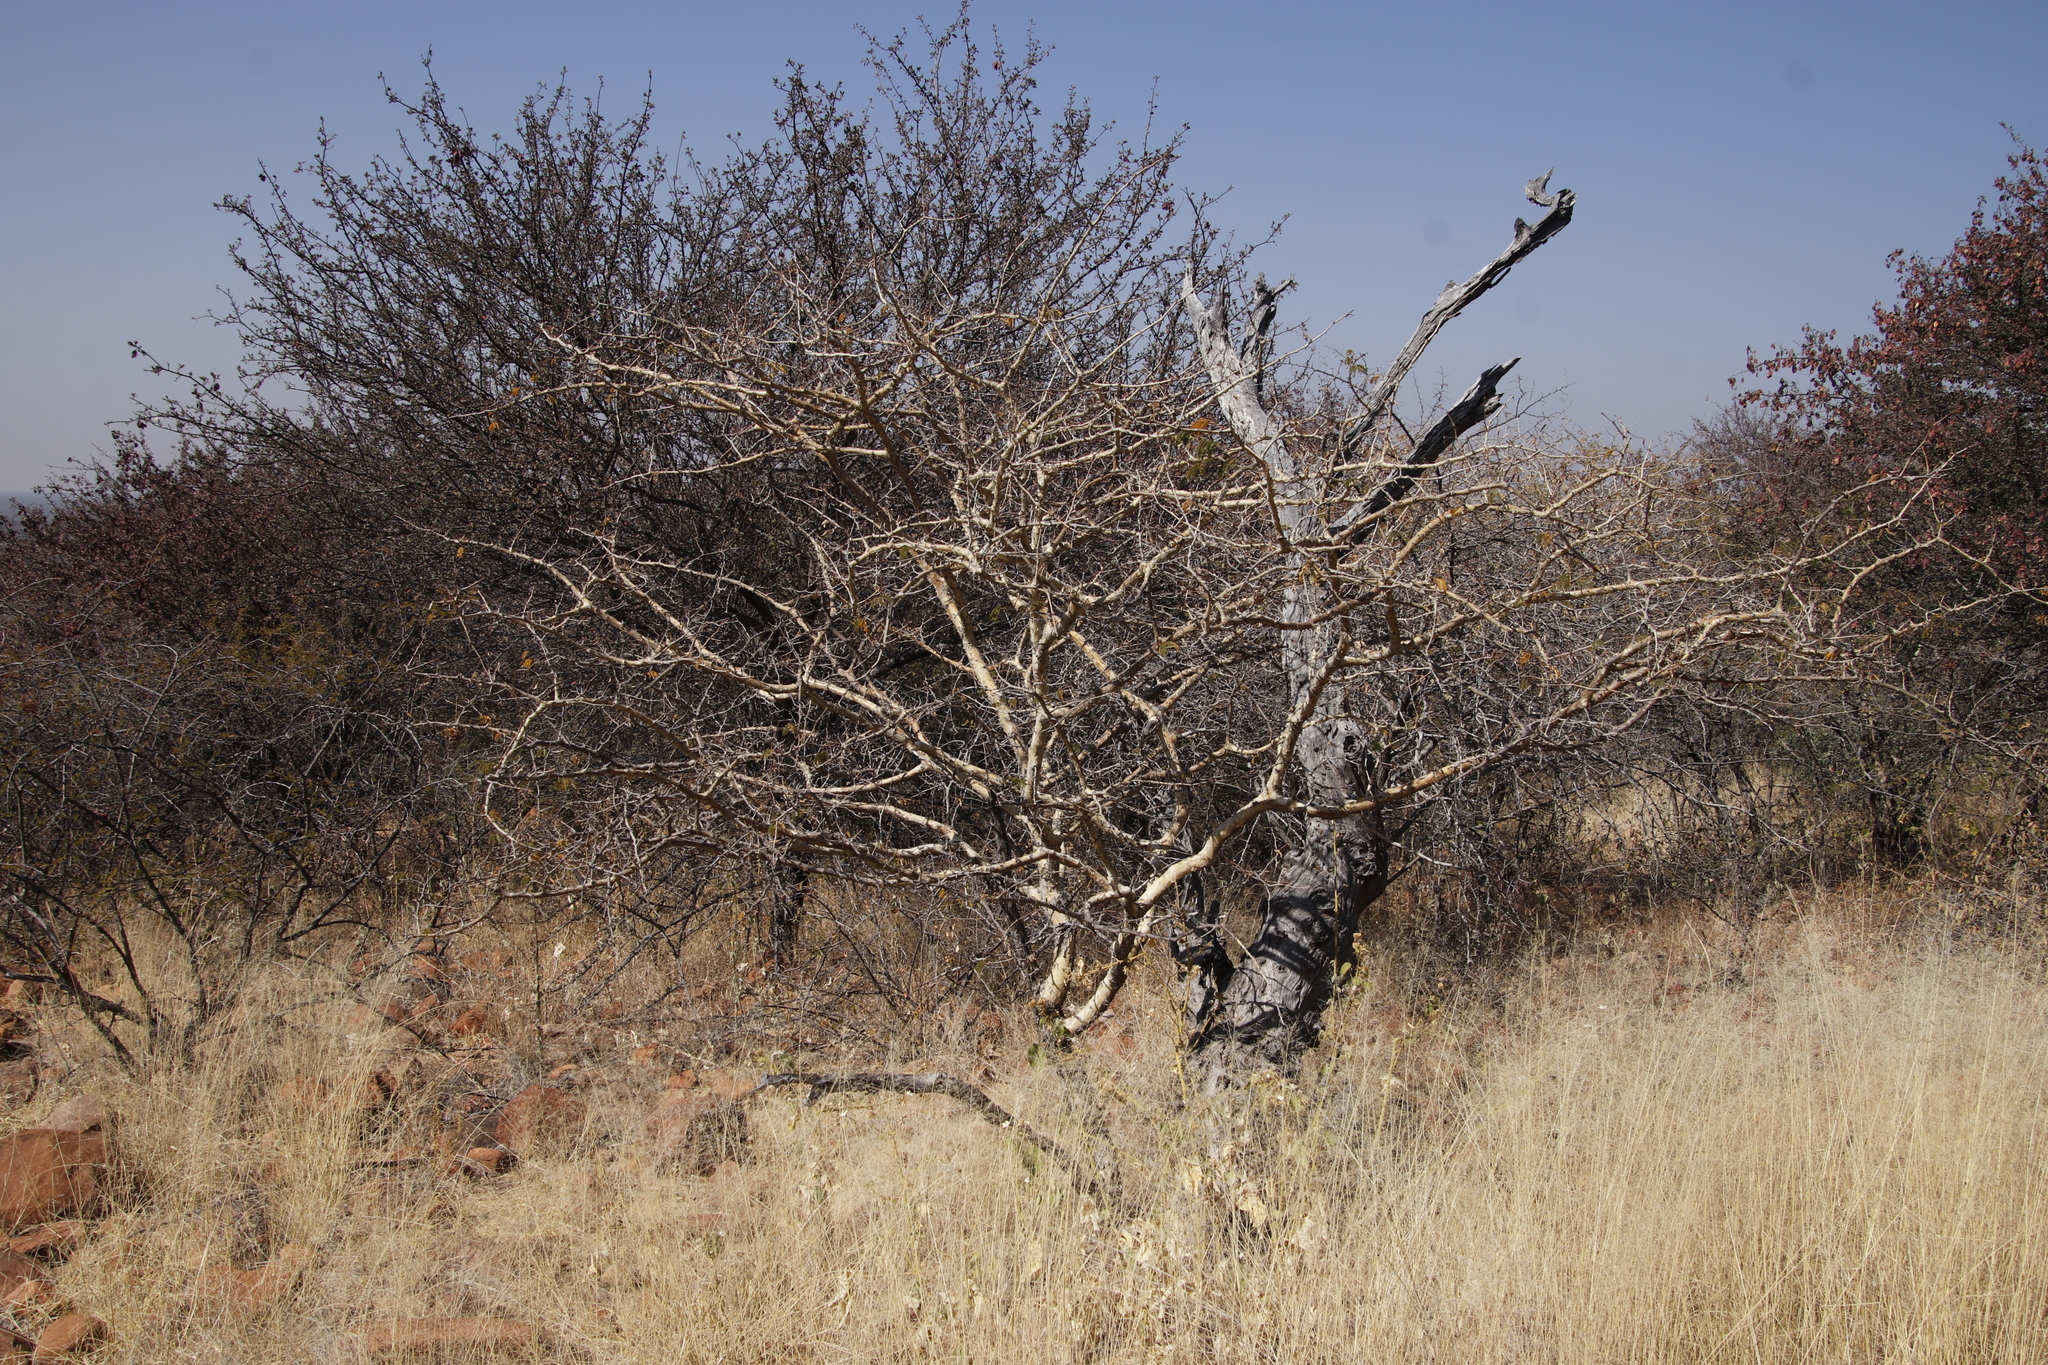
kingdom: Plantae
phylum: Tracheophyta
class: Magnoliopsida
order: Fabales
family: Fabaceae
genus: Senegalia
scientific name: Senegalia erubescens
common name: Bluethorn
